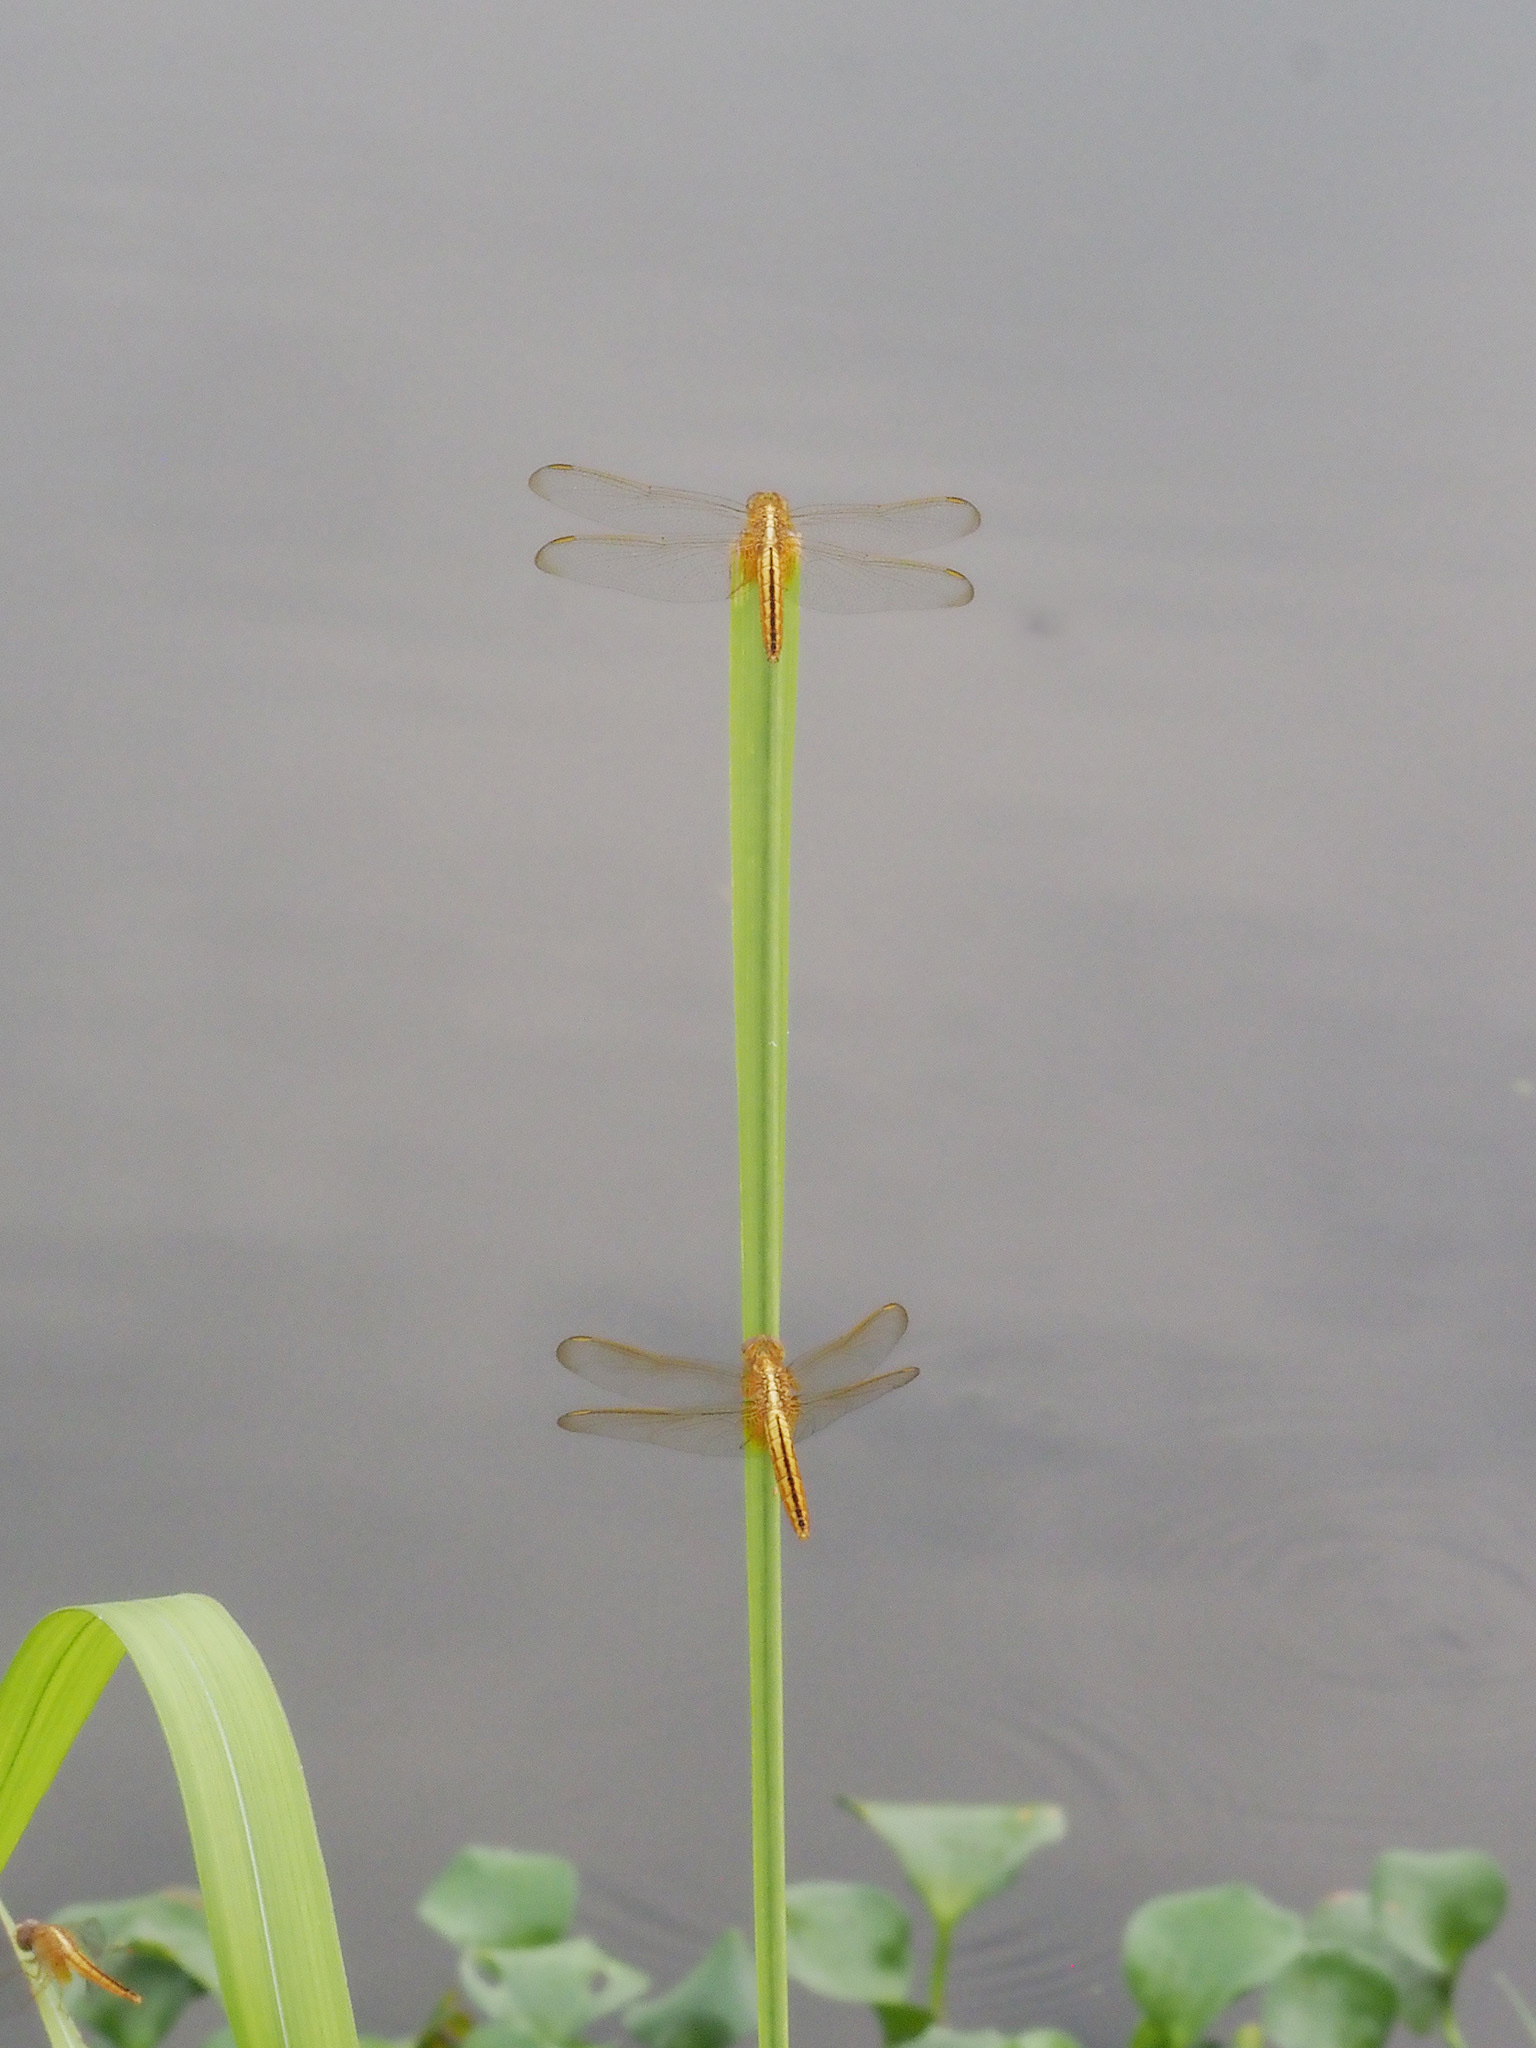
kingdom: Animalia
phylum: Arthropoda
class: Insecta
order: Odonata
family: Libellulidae
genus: Crocothemis
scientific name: Crocothemis servilia
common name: Scarlet skimmer
